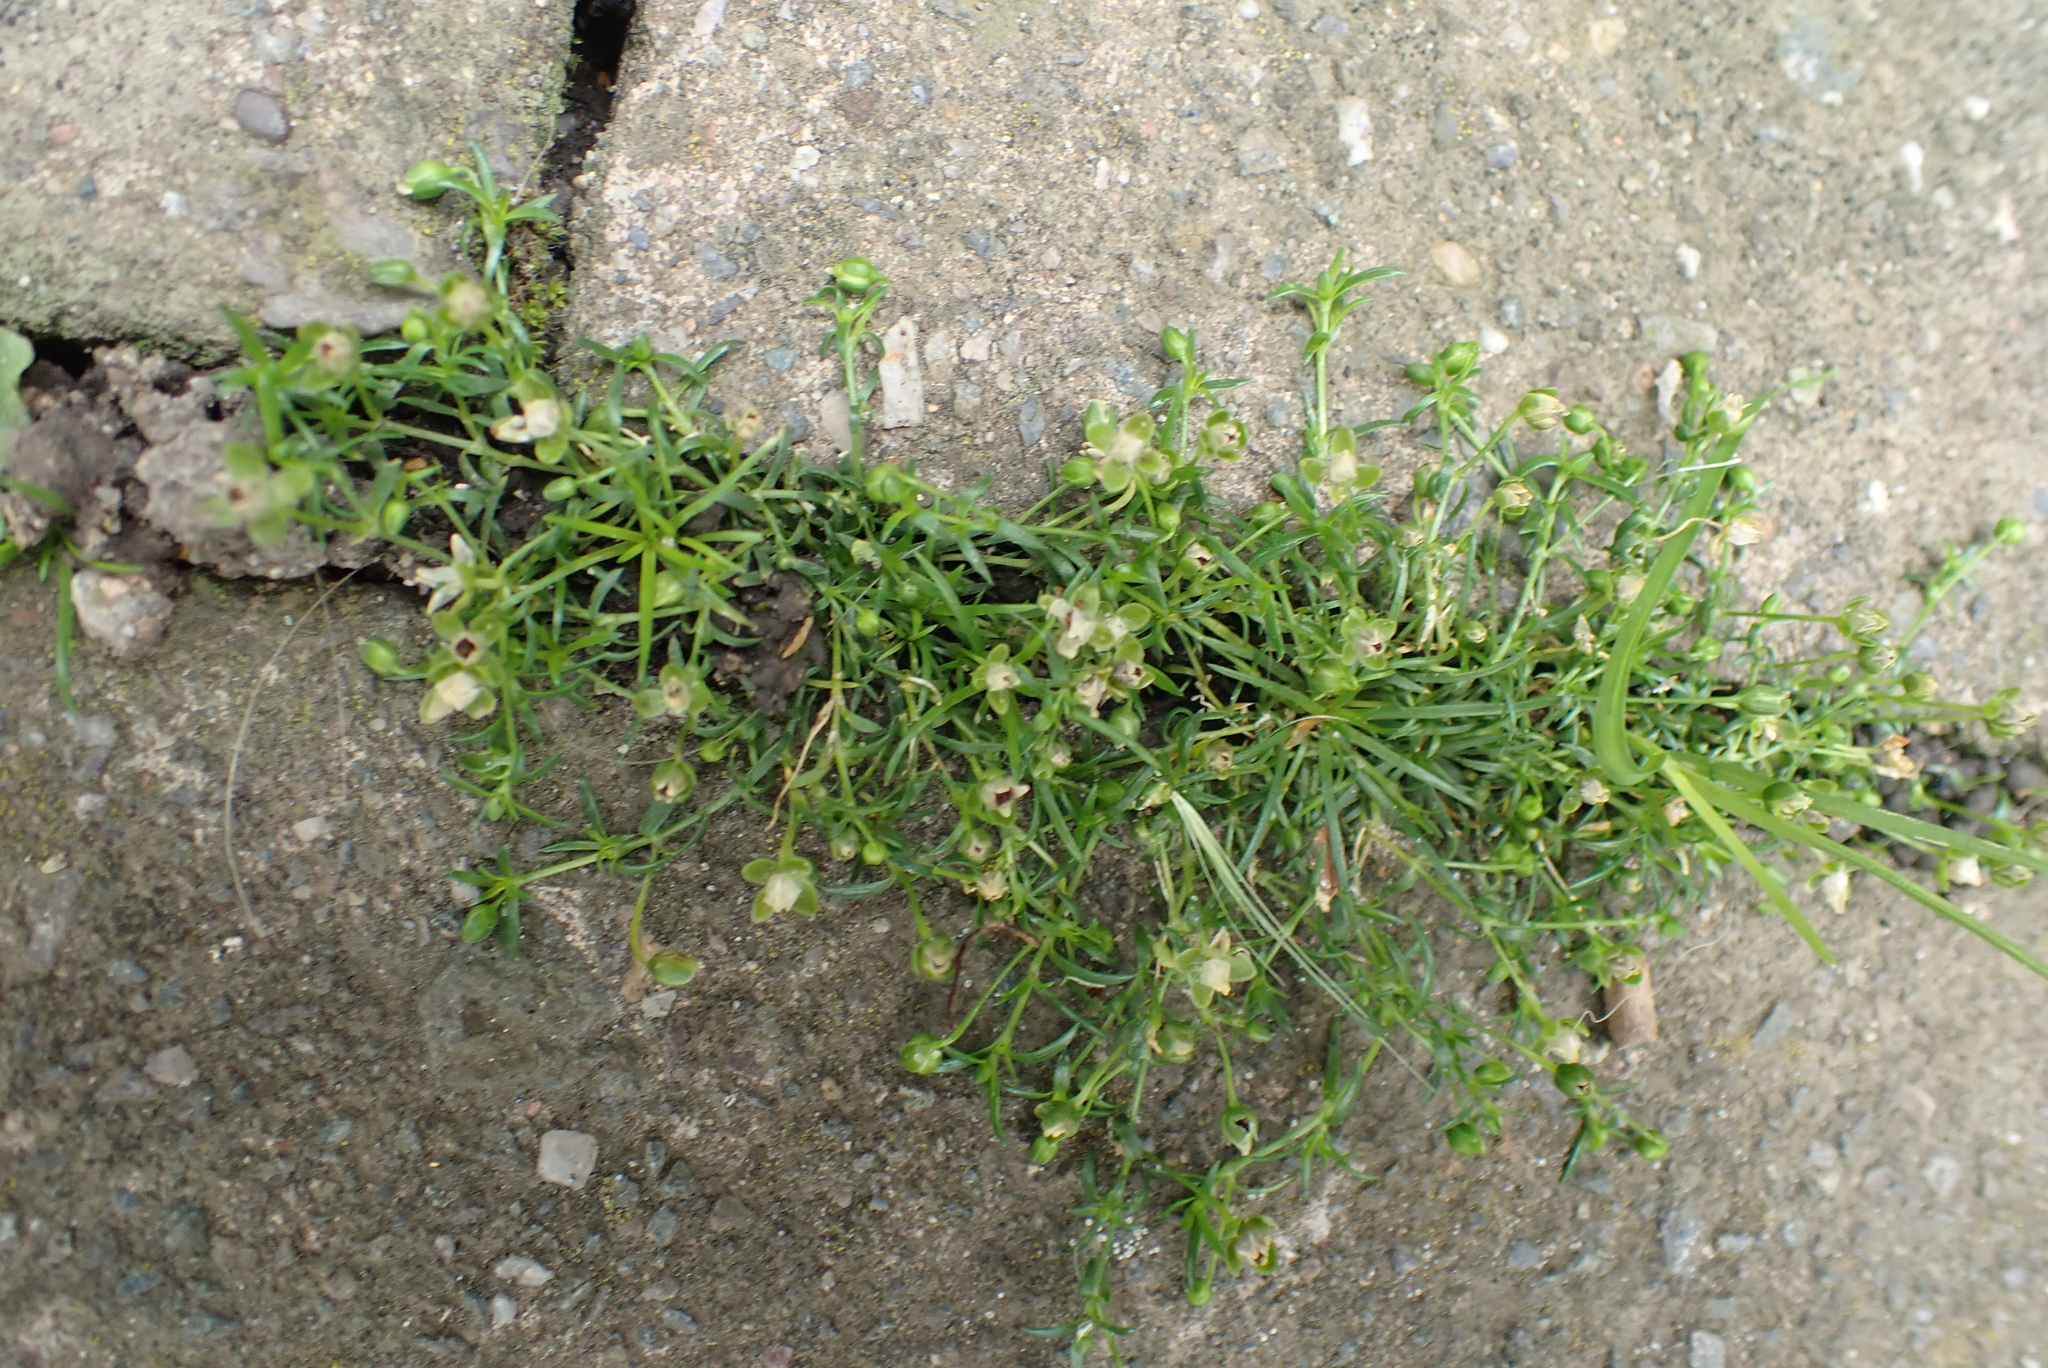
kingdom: Plantae
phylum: Tracheophyta
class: Magnoliopsida
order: Caryophyllales
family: Caryophyllaceae
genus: Sagina
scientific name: Sagina procumbens
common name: Procumbent pearlwort
